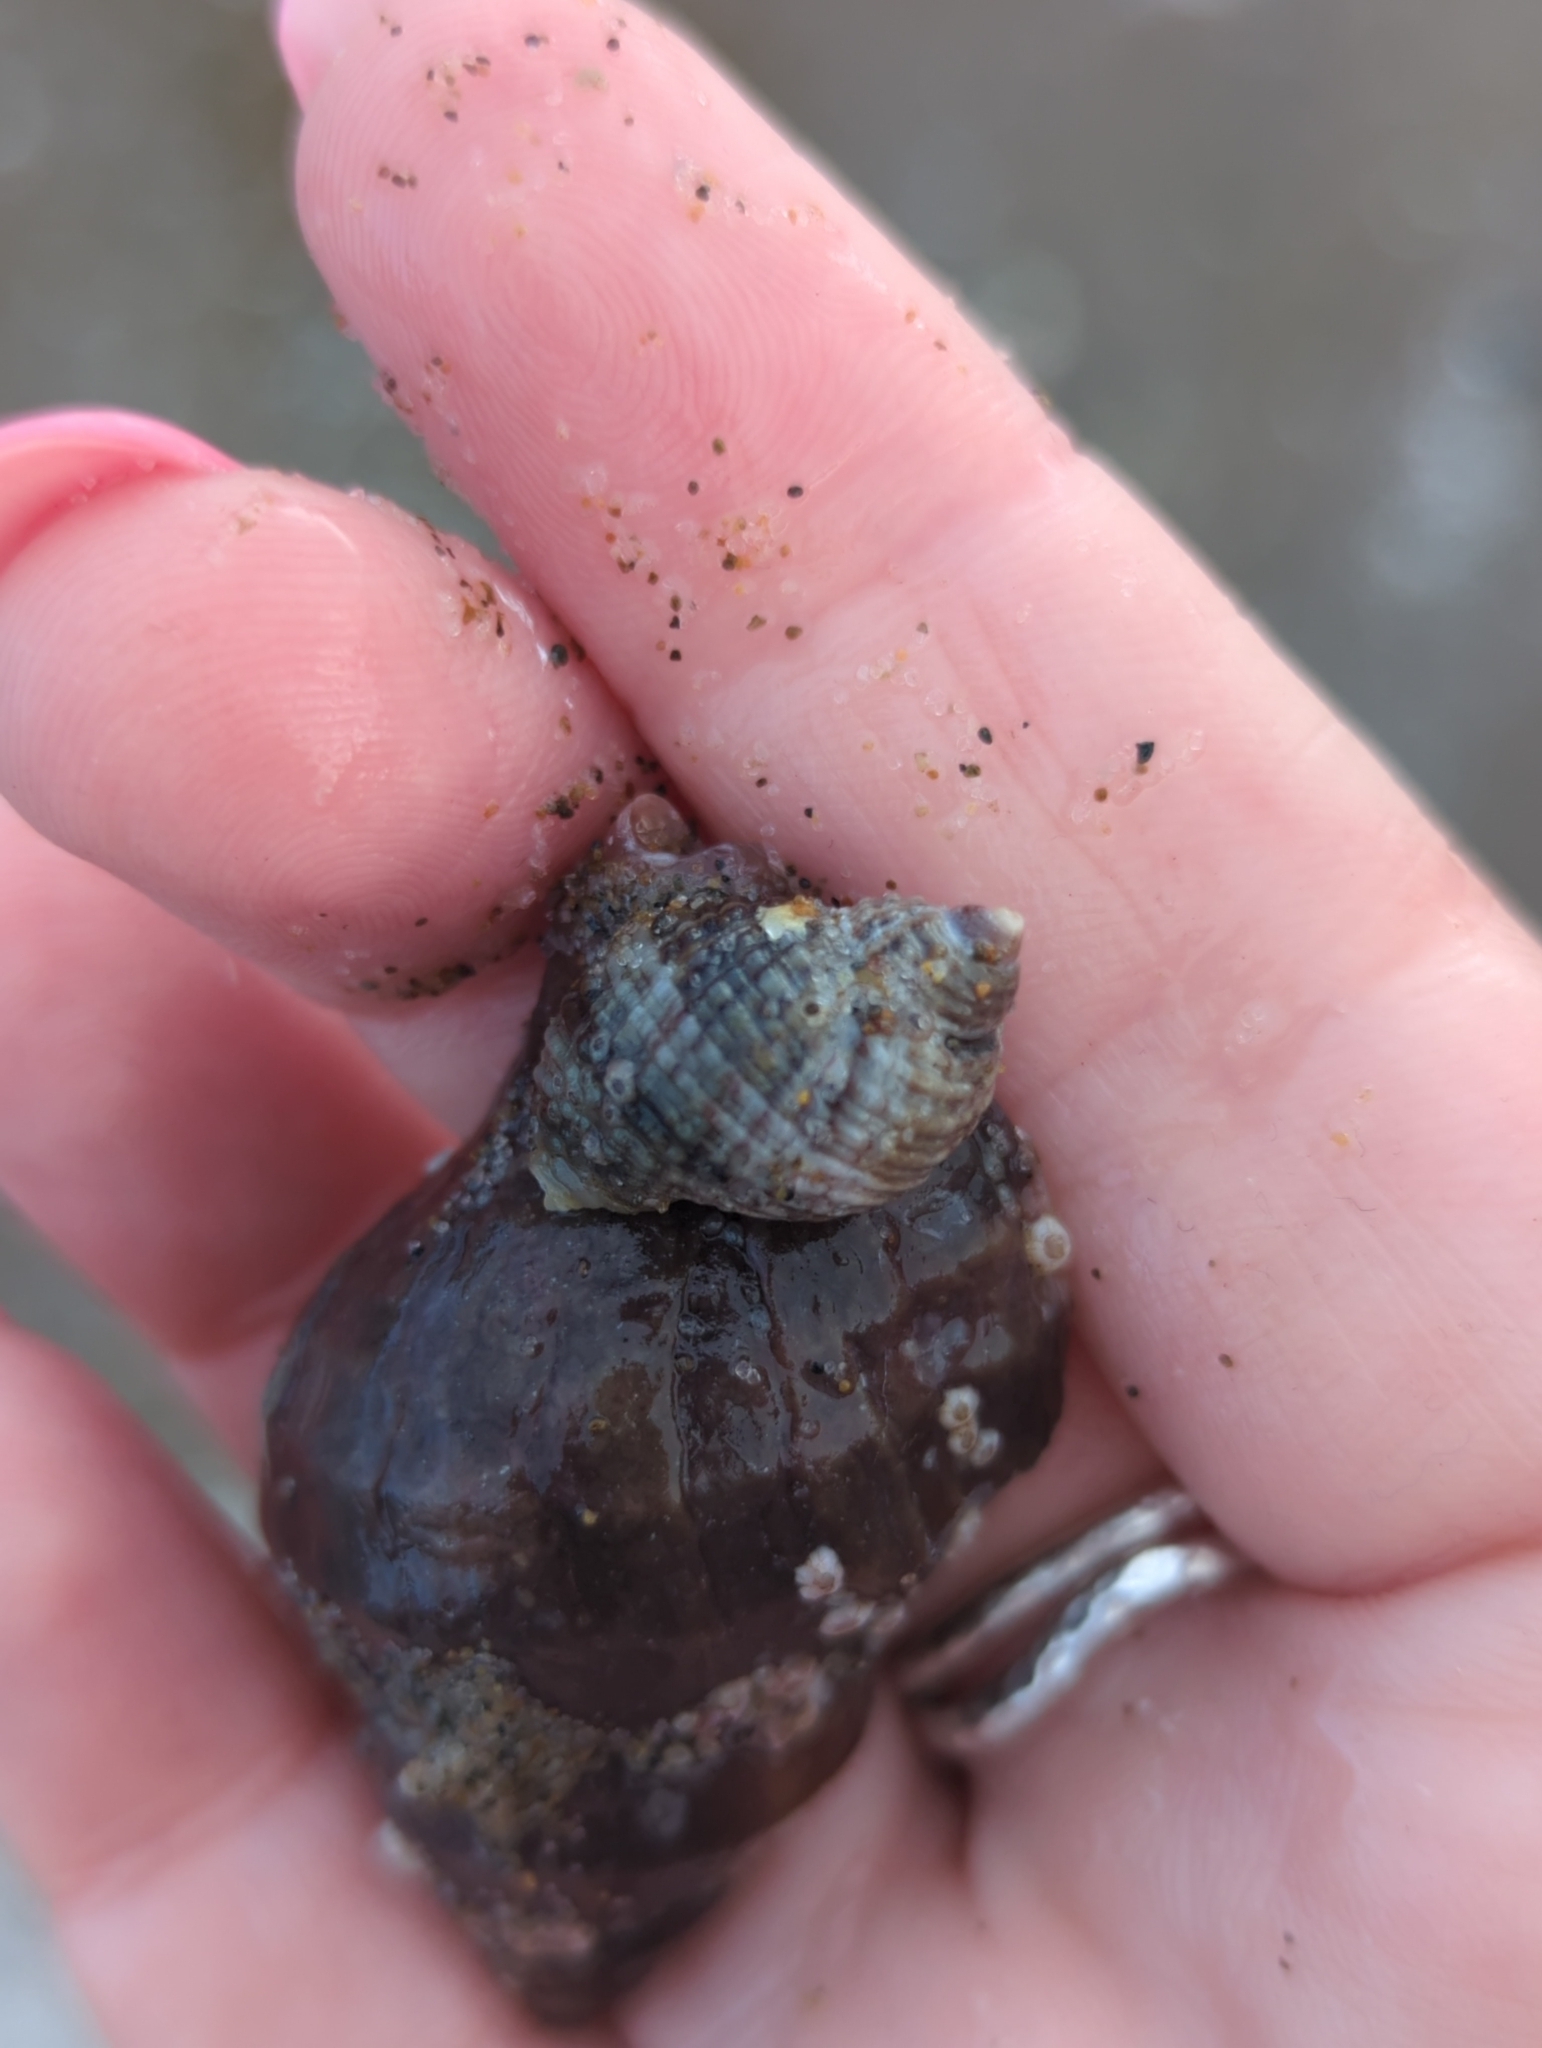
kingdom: Animalia
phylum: Mollusca
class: Gastropoda
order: Neogastropoda
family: Muricidae
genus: Nucella
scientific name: Nucella lamellosa
